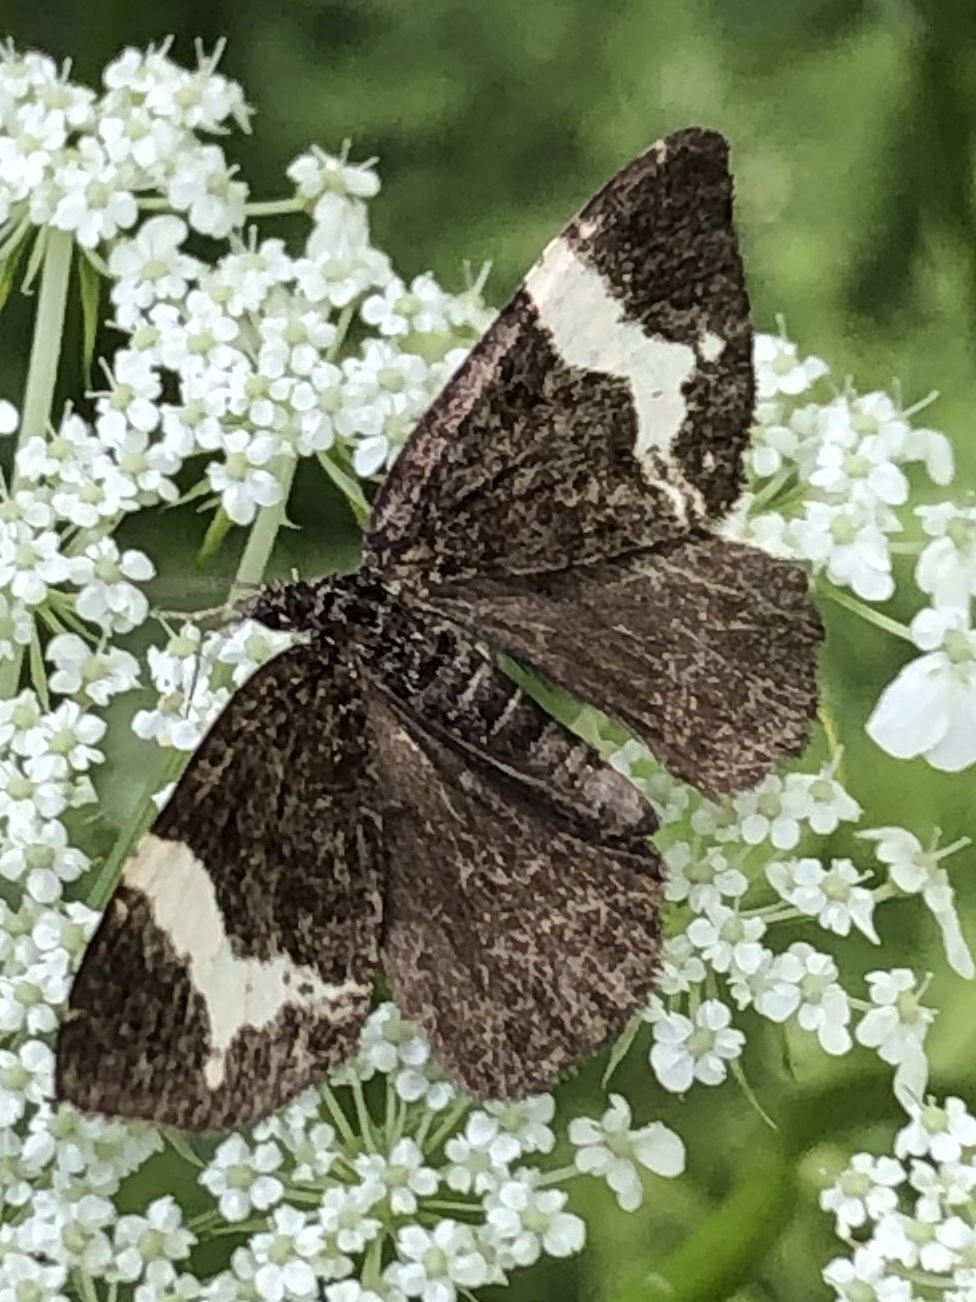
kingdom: Animalia
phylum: Arthropoda
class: Insecta
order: Lepidoptera
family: Geometridae
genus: Rheumaptera
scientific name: Rheumaptera
